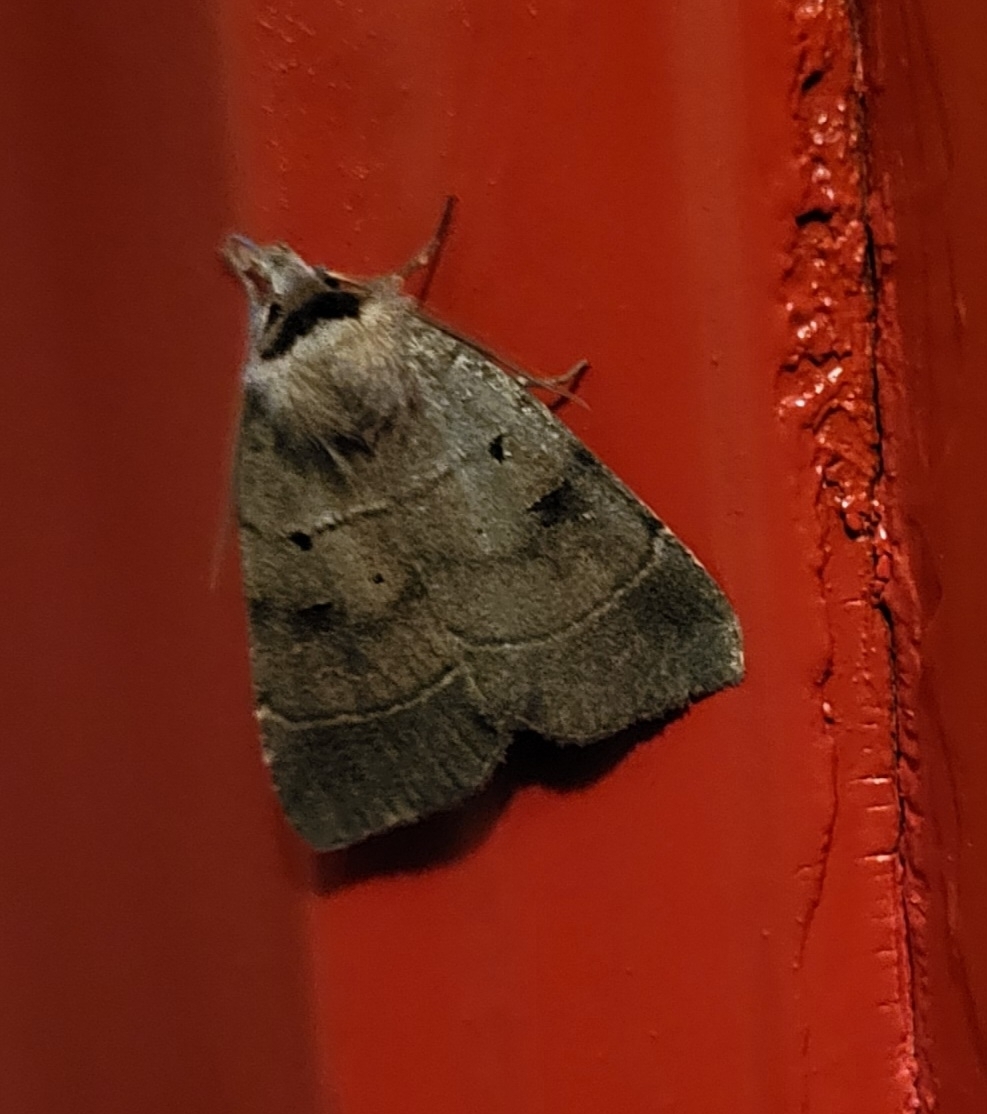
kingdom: Animalia
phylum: Arthropoda
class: Insecta
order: Lepidoptera
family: Noctuidae
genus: Agnorisma
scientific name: Agnorisma badinodis
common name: Pale-banded dart
